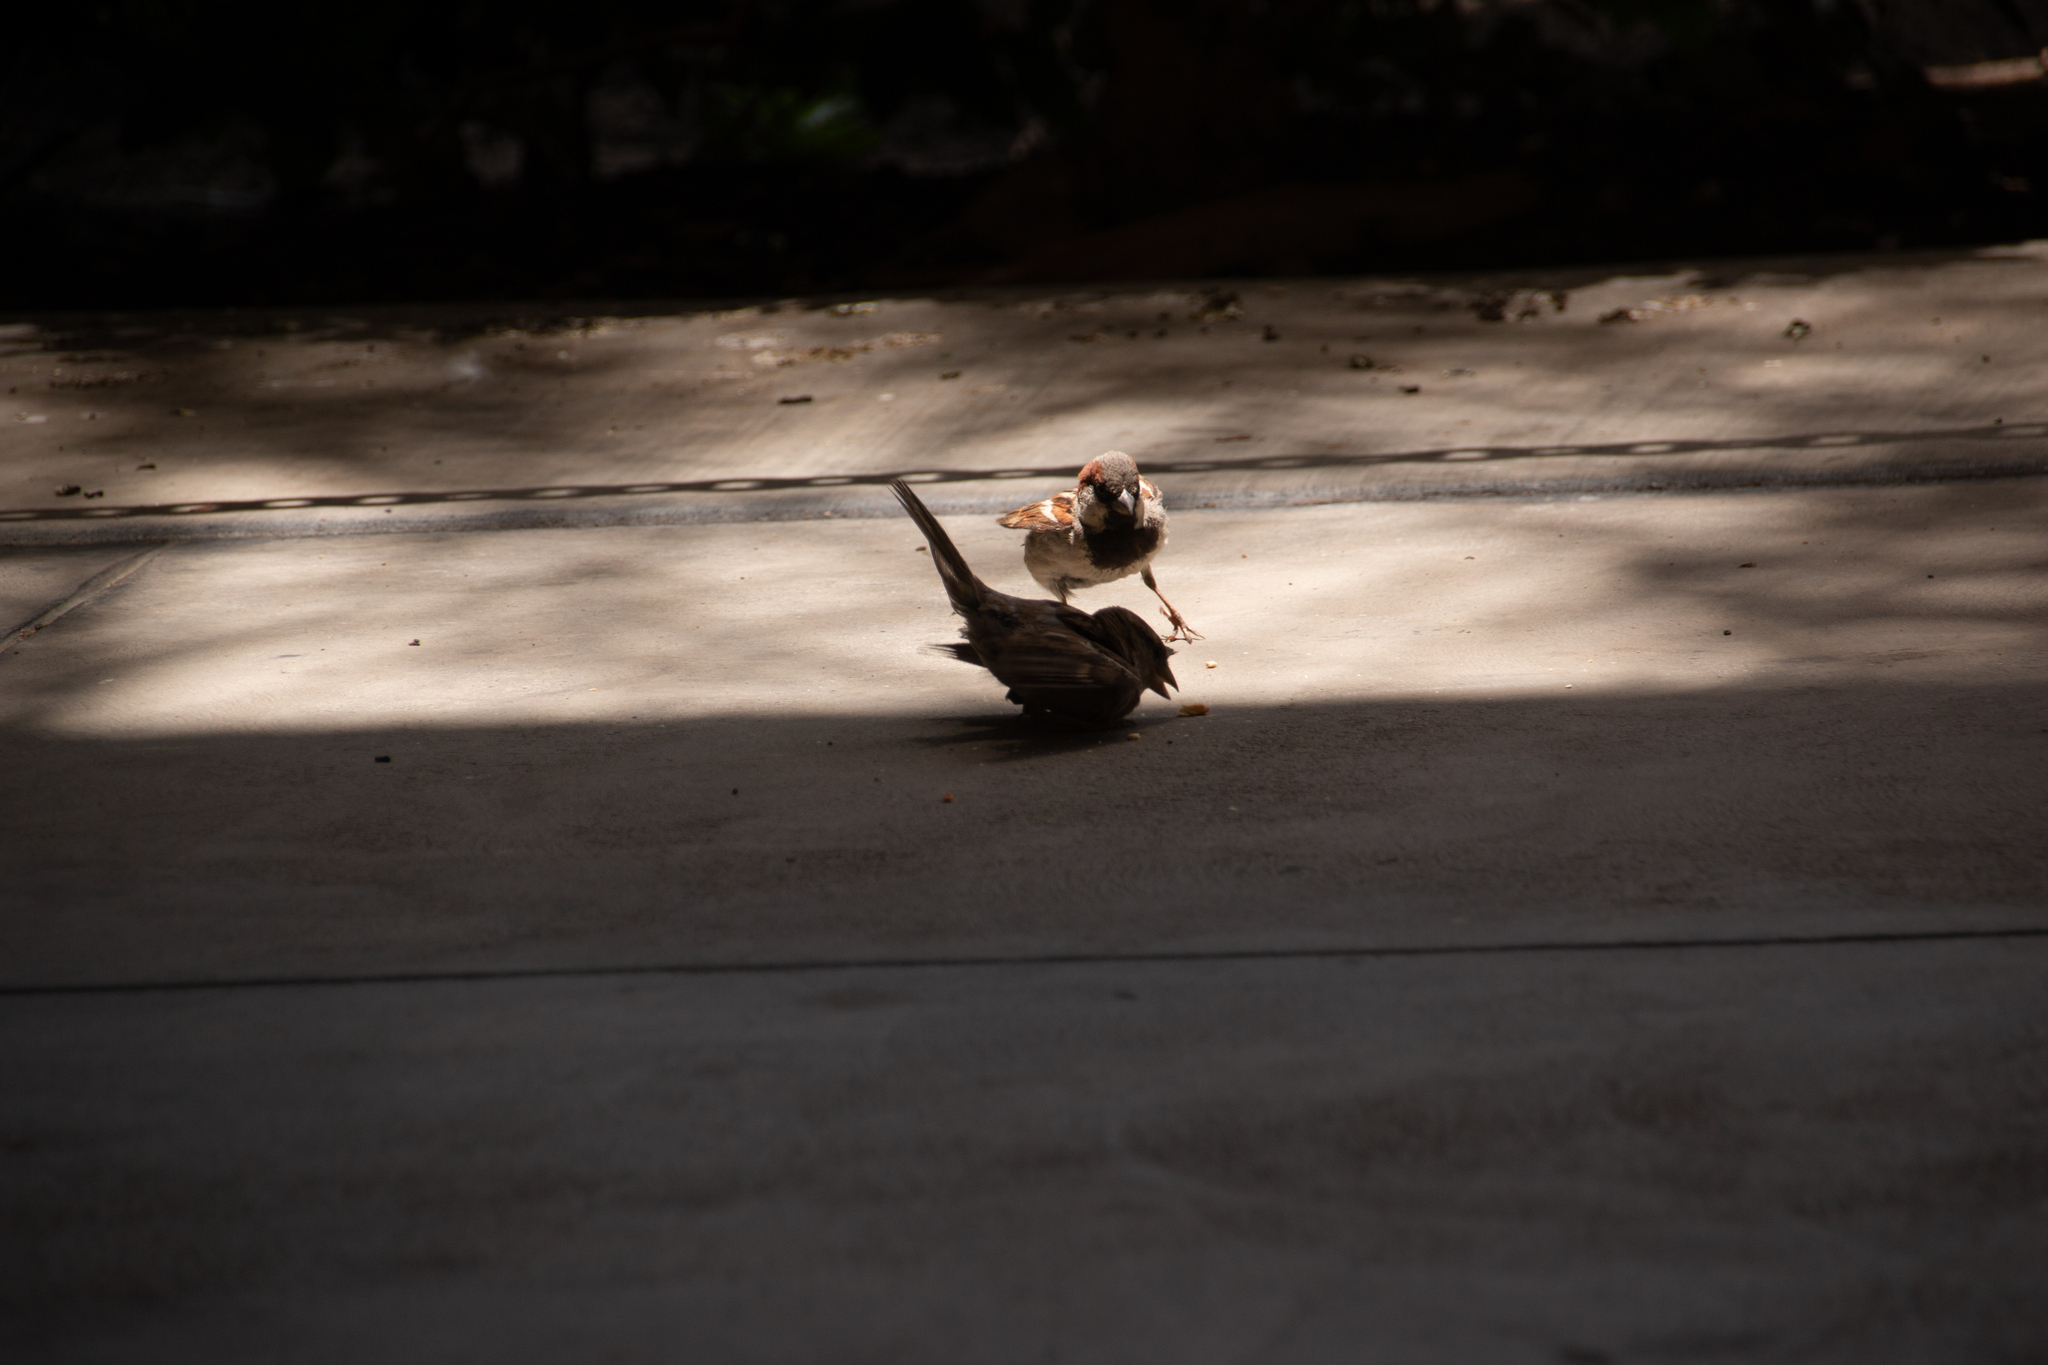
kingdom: Animalia
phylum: Chordata
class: Aves
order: Passeriformes
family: Passeridae
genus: Passer
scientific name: Passer domesticus
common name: House sparrow
